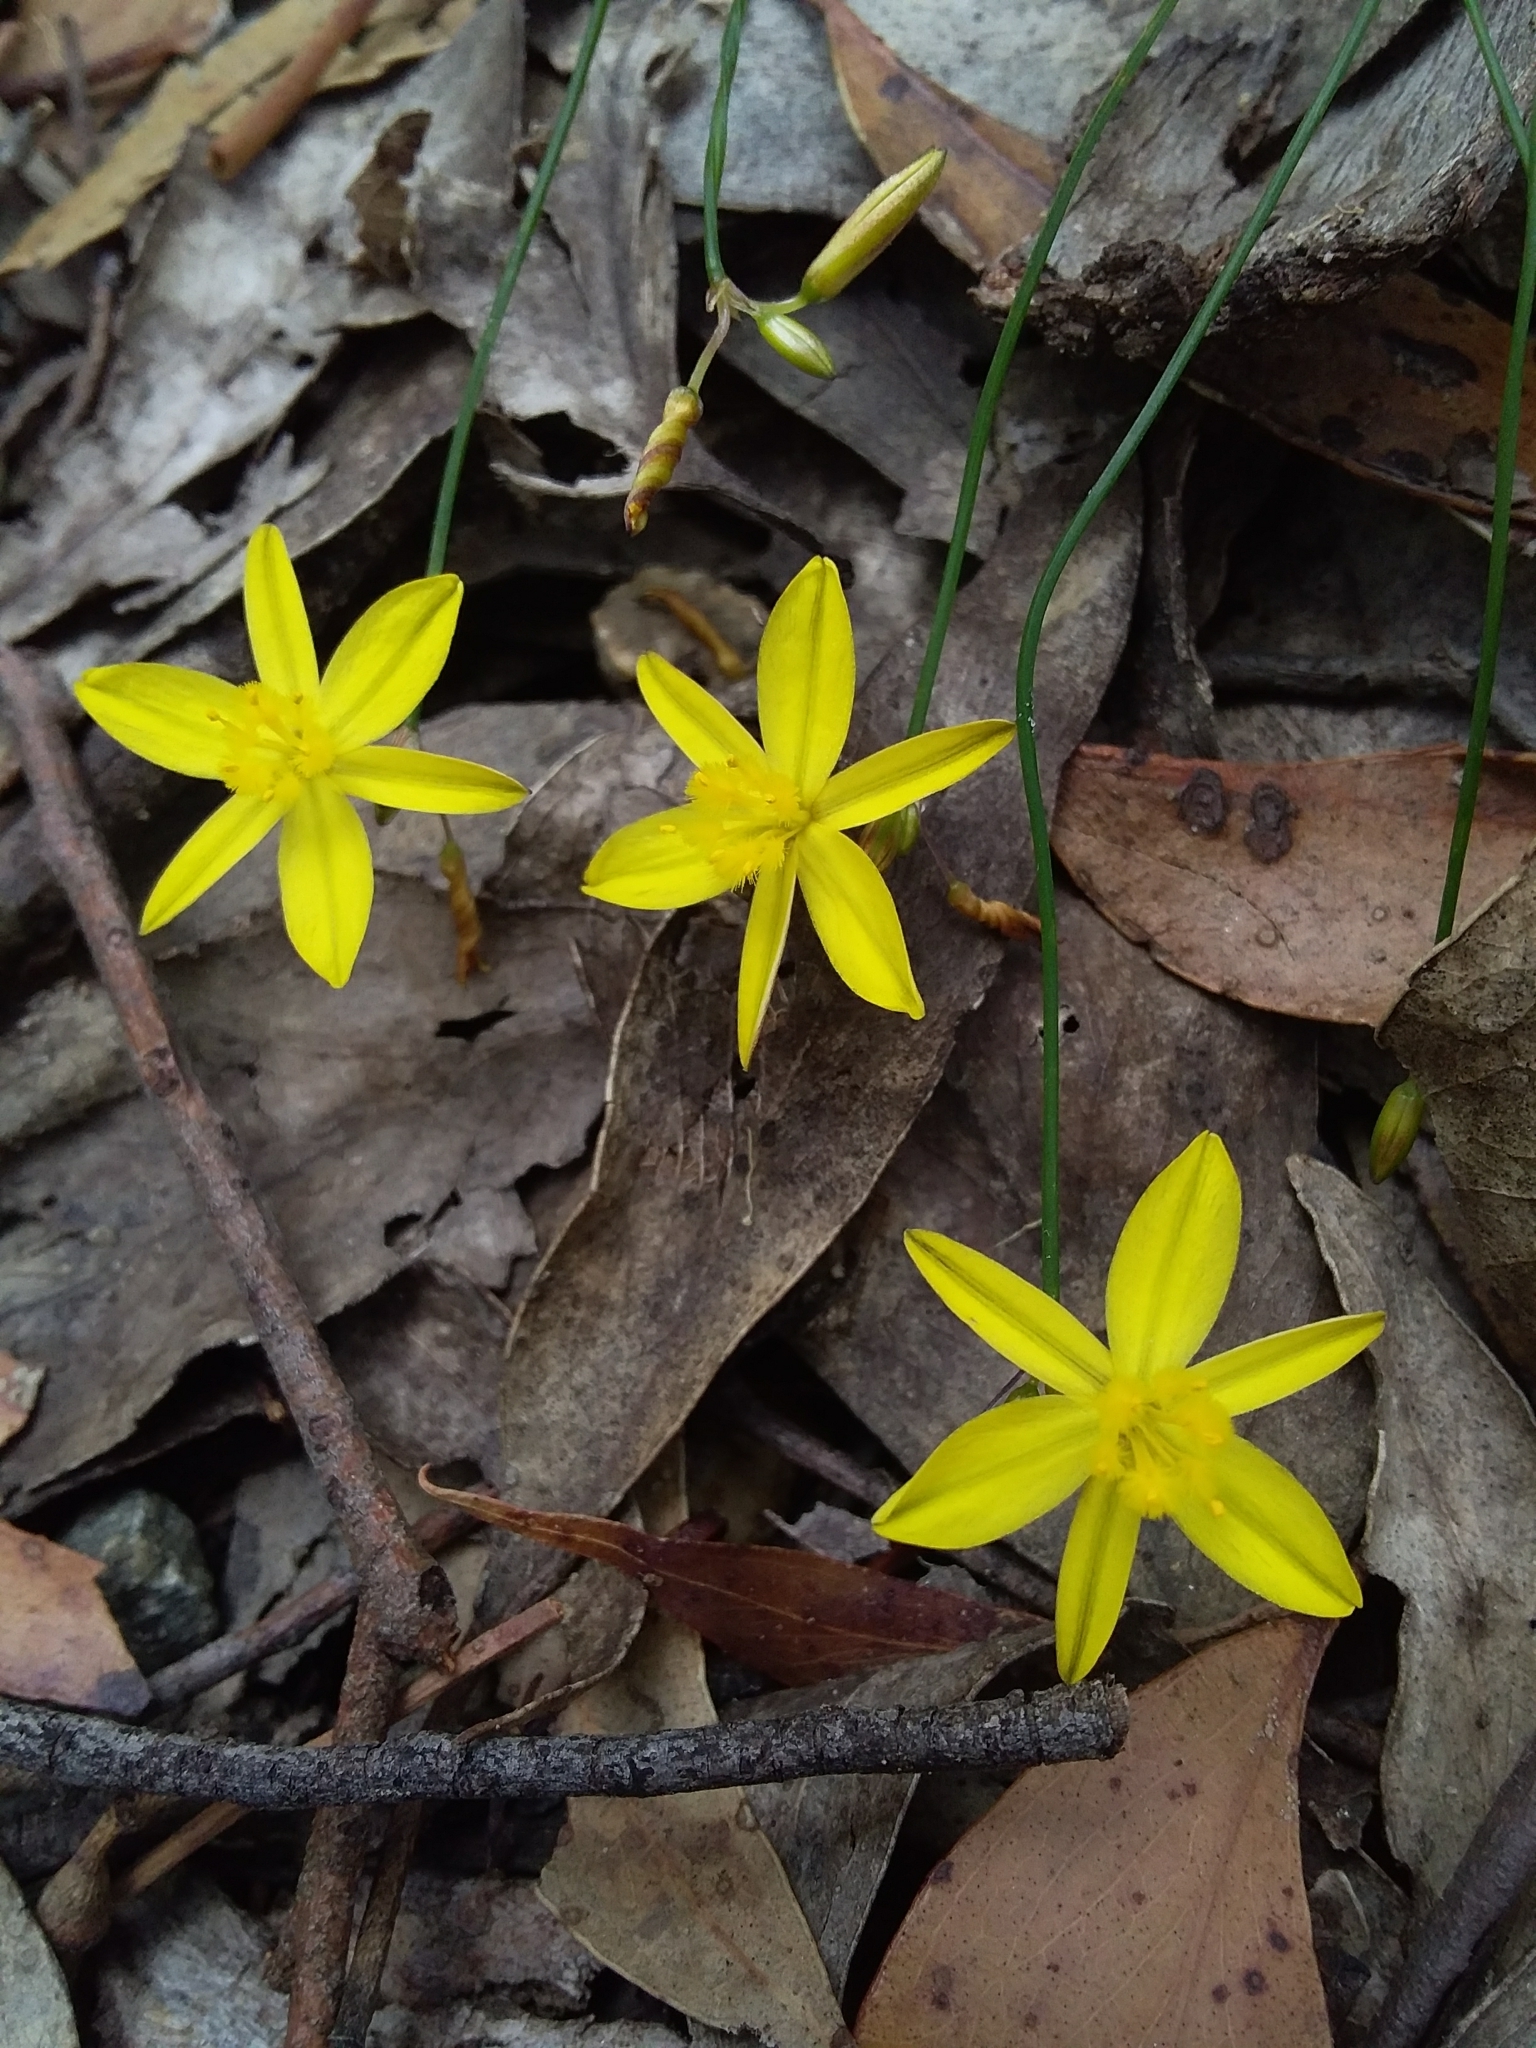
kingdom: Plantae
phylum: Tracheophyta
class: Liliopsida
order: Asparagales
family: Asphodelaceae
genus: Tricoryne
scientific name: Tricoryne elatior
